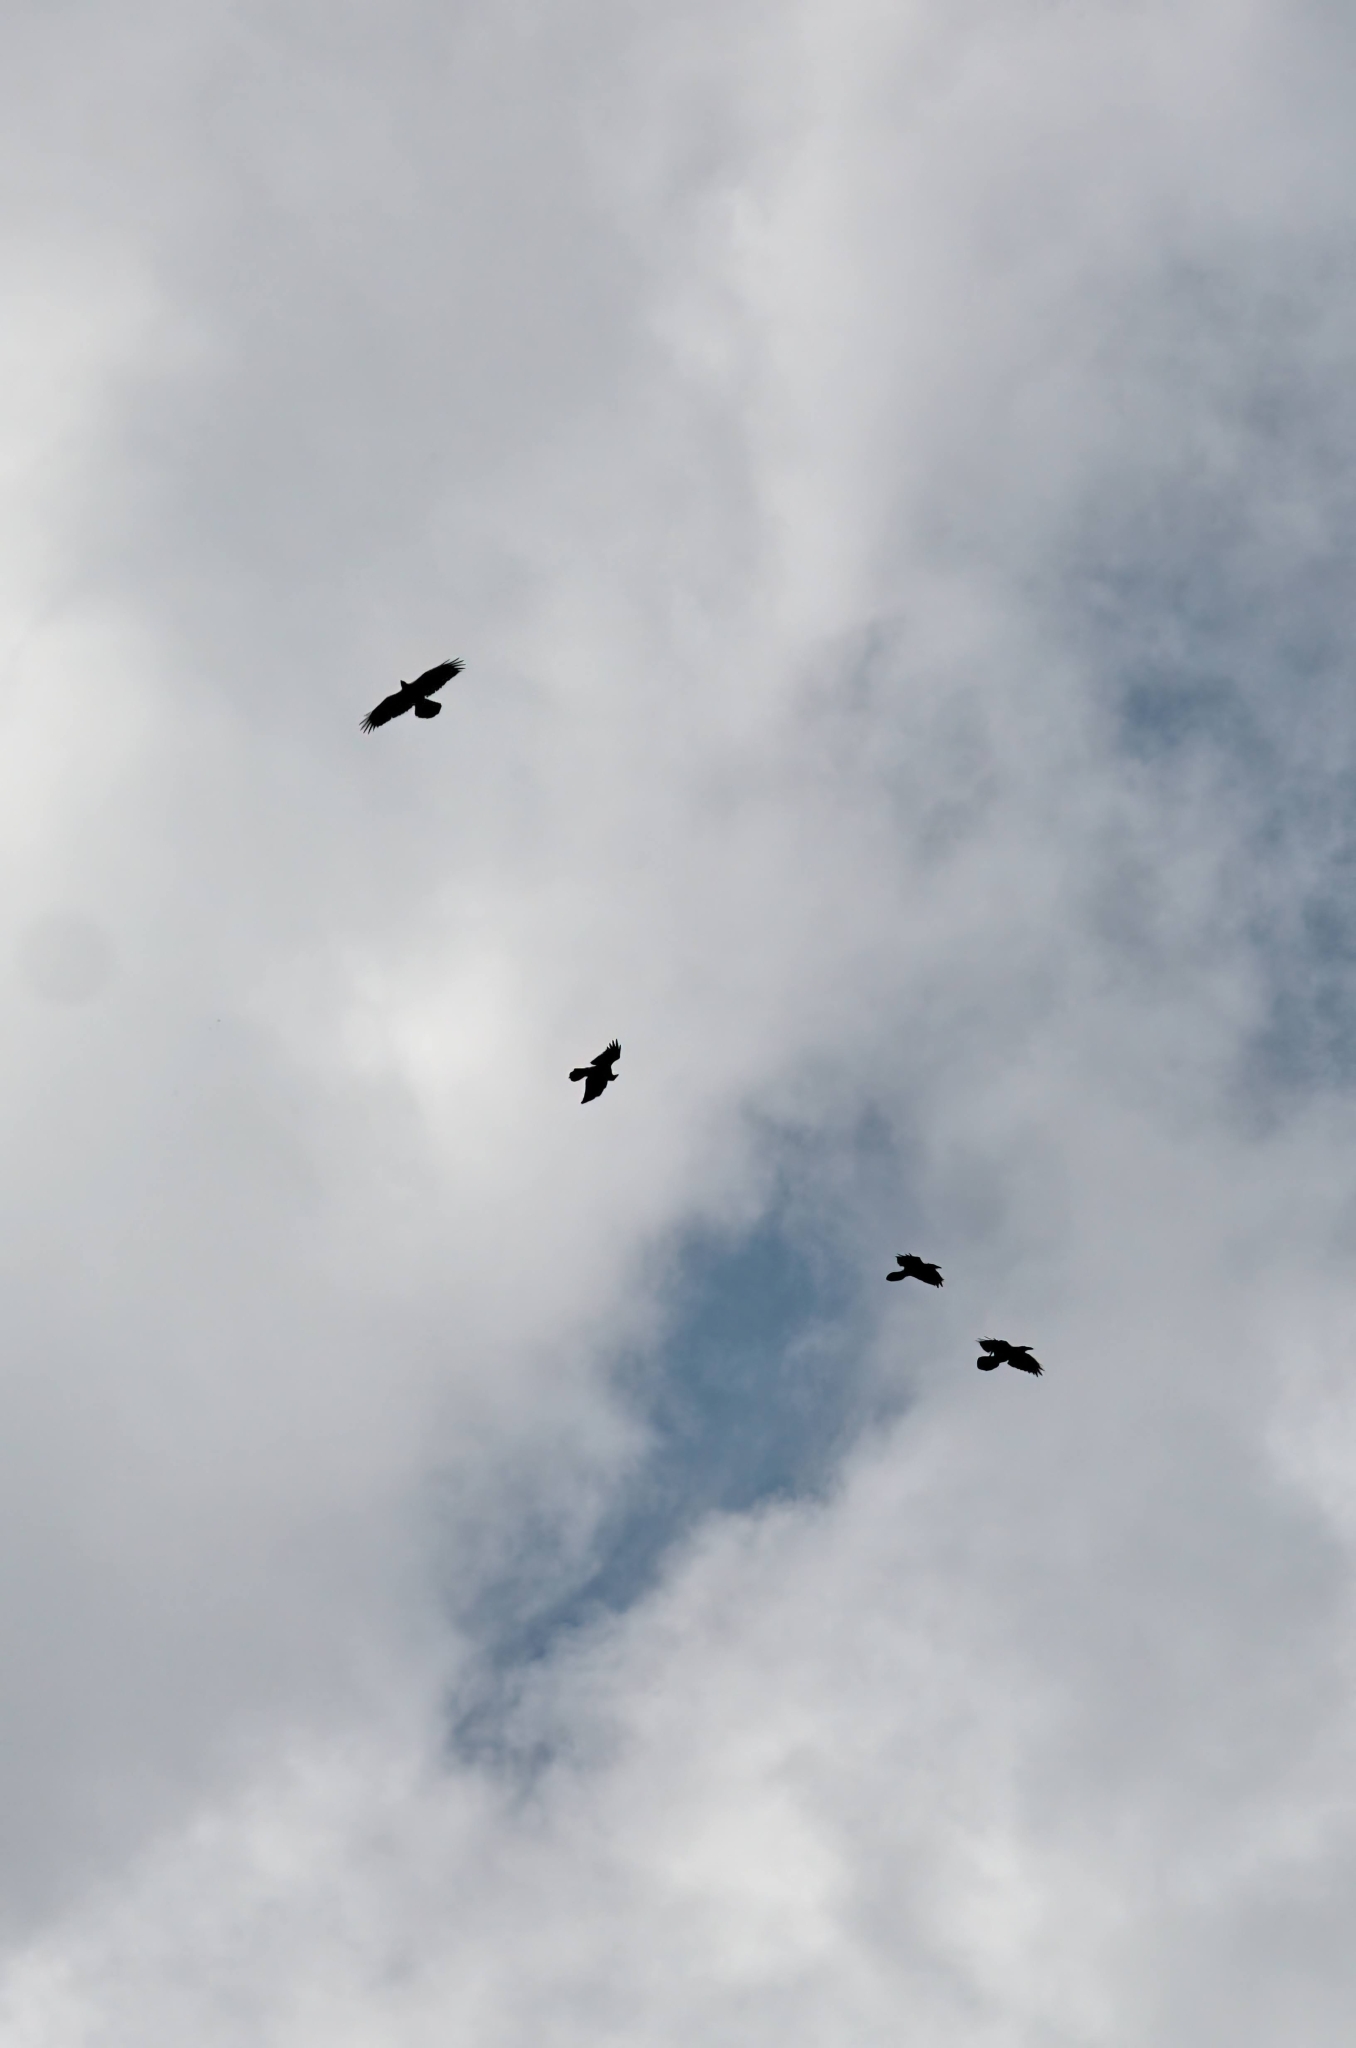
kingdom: Animalia
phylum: Chordata
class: Aves
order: Passeriformes
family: Corvidae
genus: Corvus
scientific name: Corvus corax
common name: Common raven
